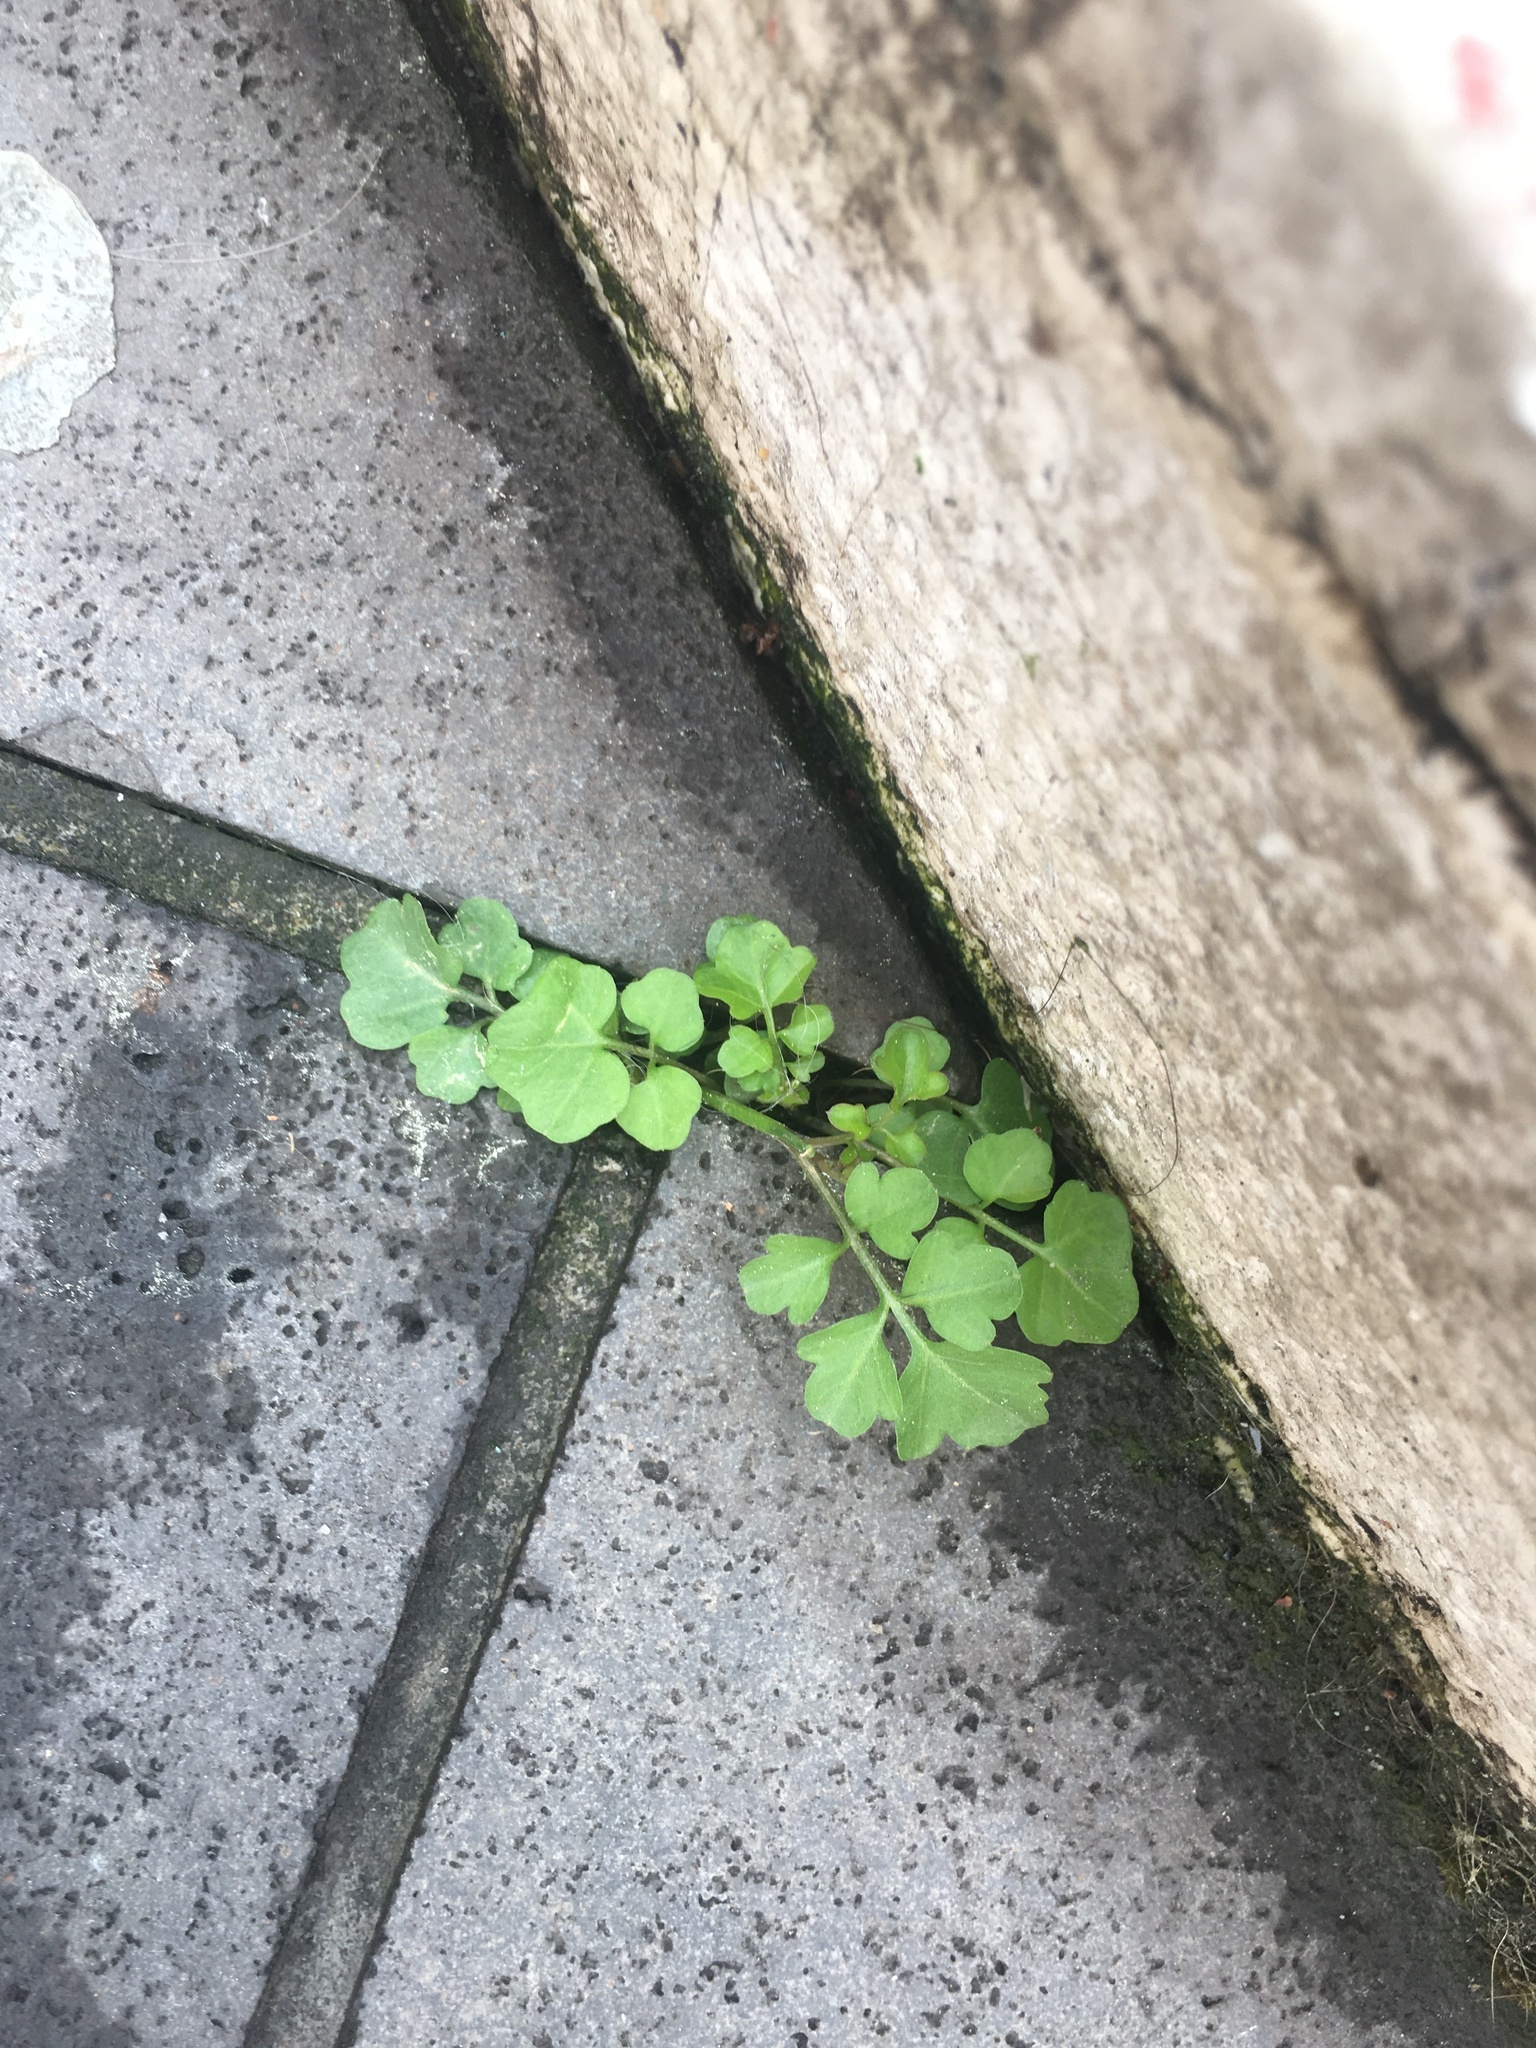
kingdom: Plantae
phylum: Tracheophyta
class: Magnoliopsida
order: Brassicales
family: Brassicaceae
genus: Cardamine
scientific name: Cardamine hirsuta
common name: Hairy bittercress
